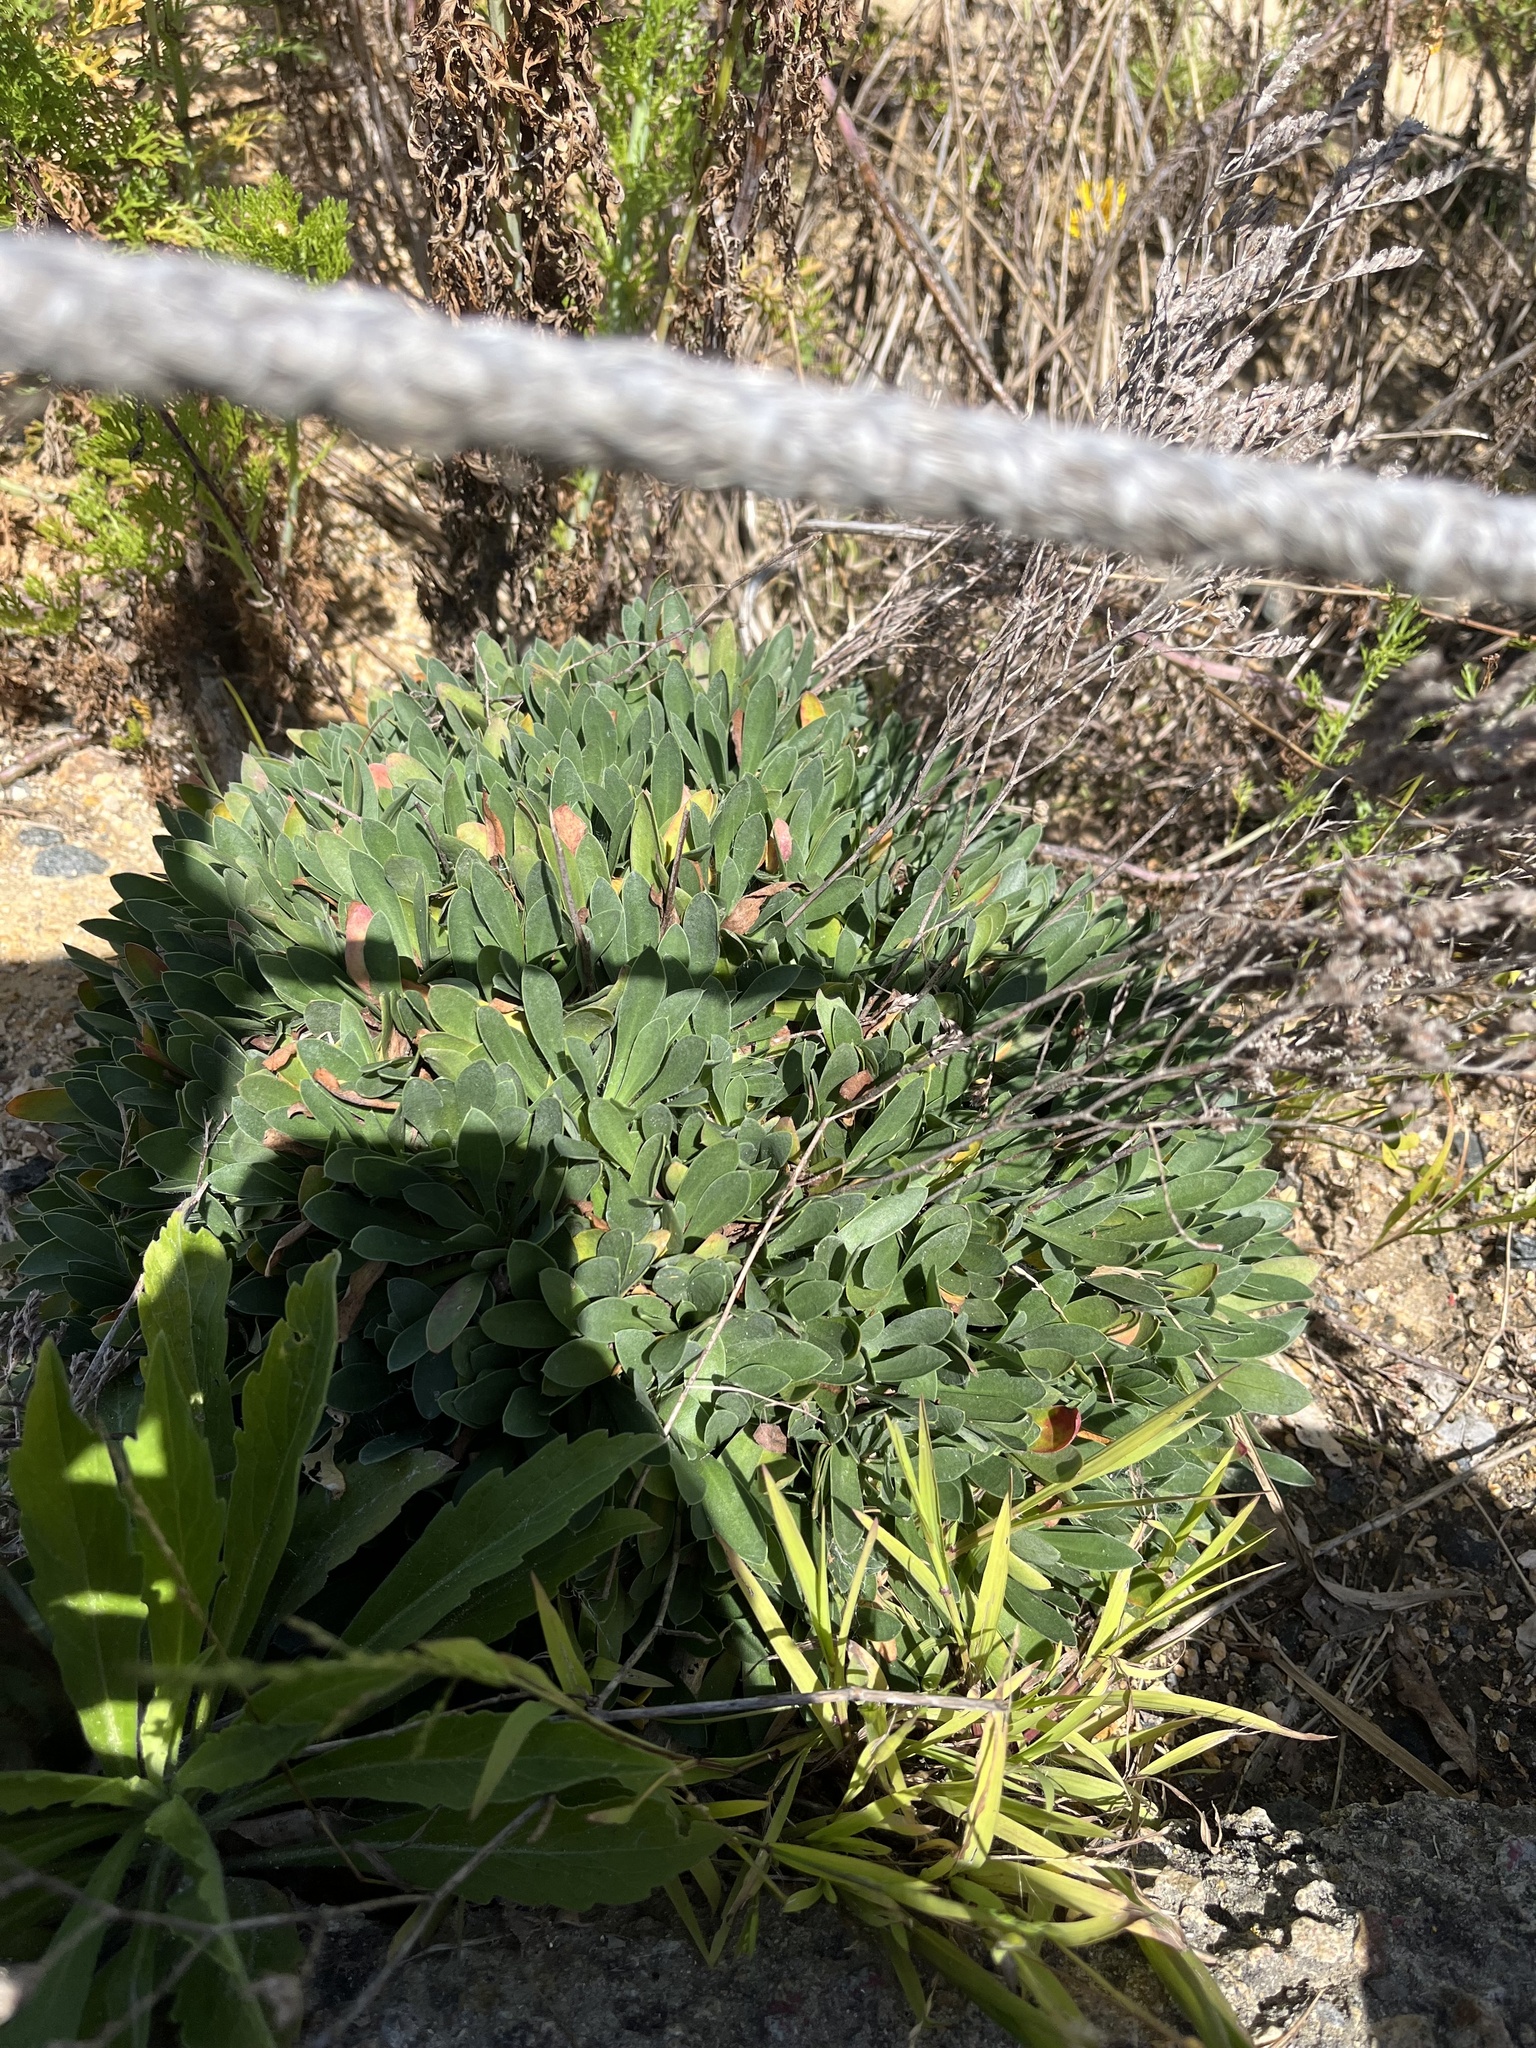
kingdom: Plantae
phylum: Tracheophyta
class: Magnoliopsida
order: Caryophyllales
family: Plumbaginaceae
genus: Limonium
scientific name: Limonium ramosissimum
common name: Algerian sea lavender
